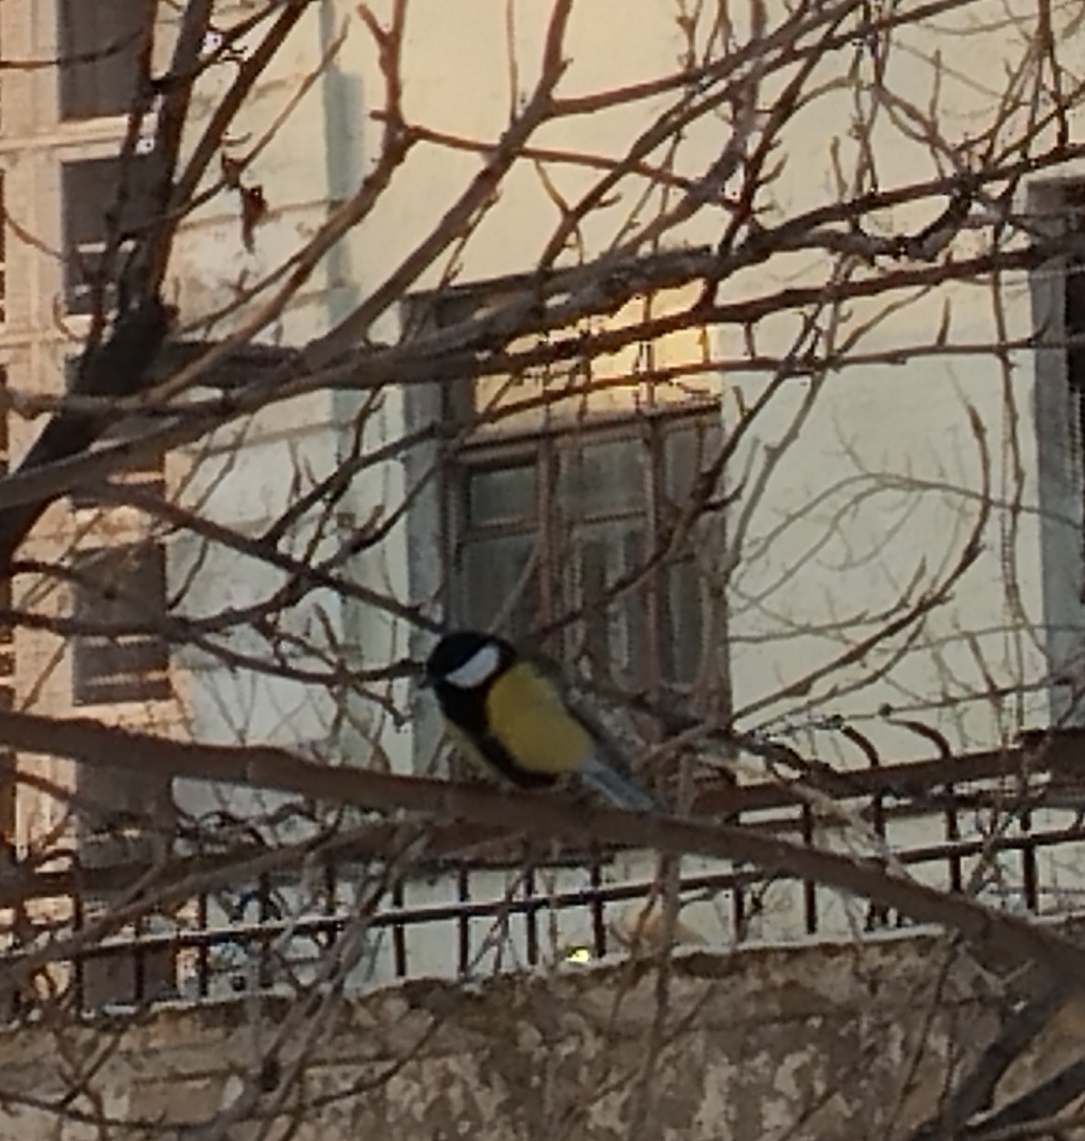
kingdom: Animalia
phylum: Chordata
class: Aves
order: Passeriformes
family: Paridae
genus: Parus
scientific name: Parus major
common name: Great tit
